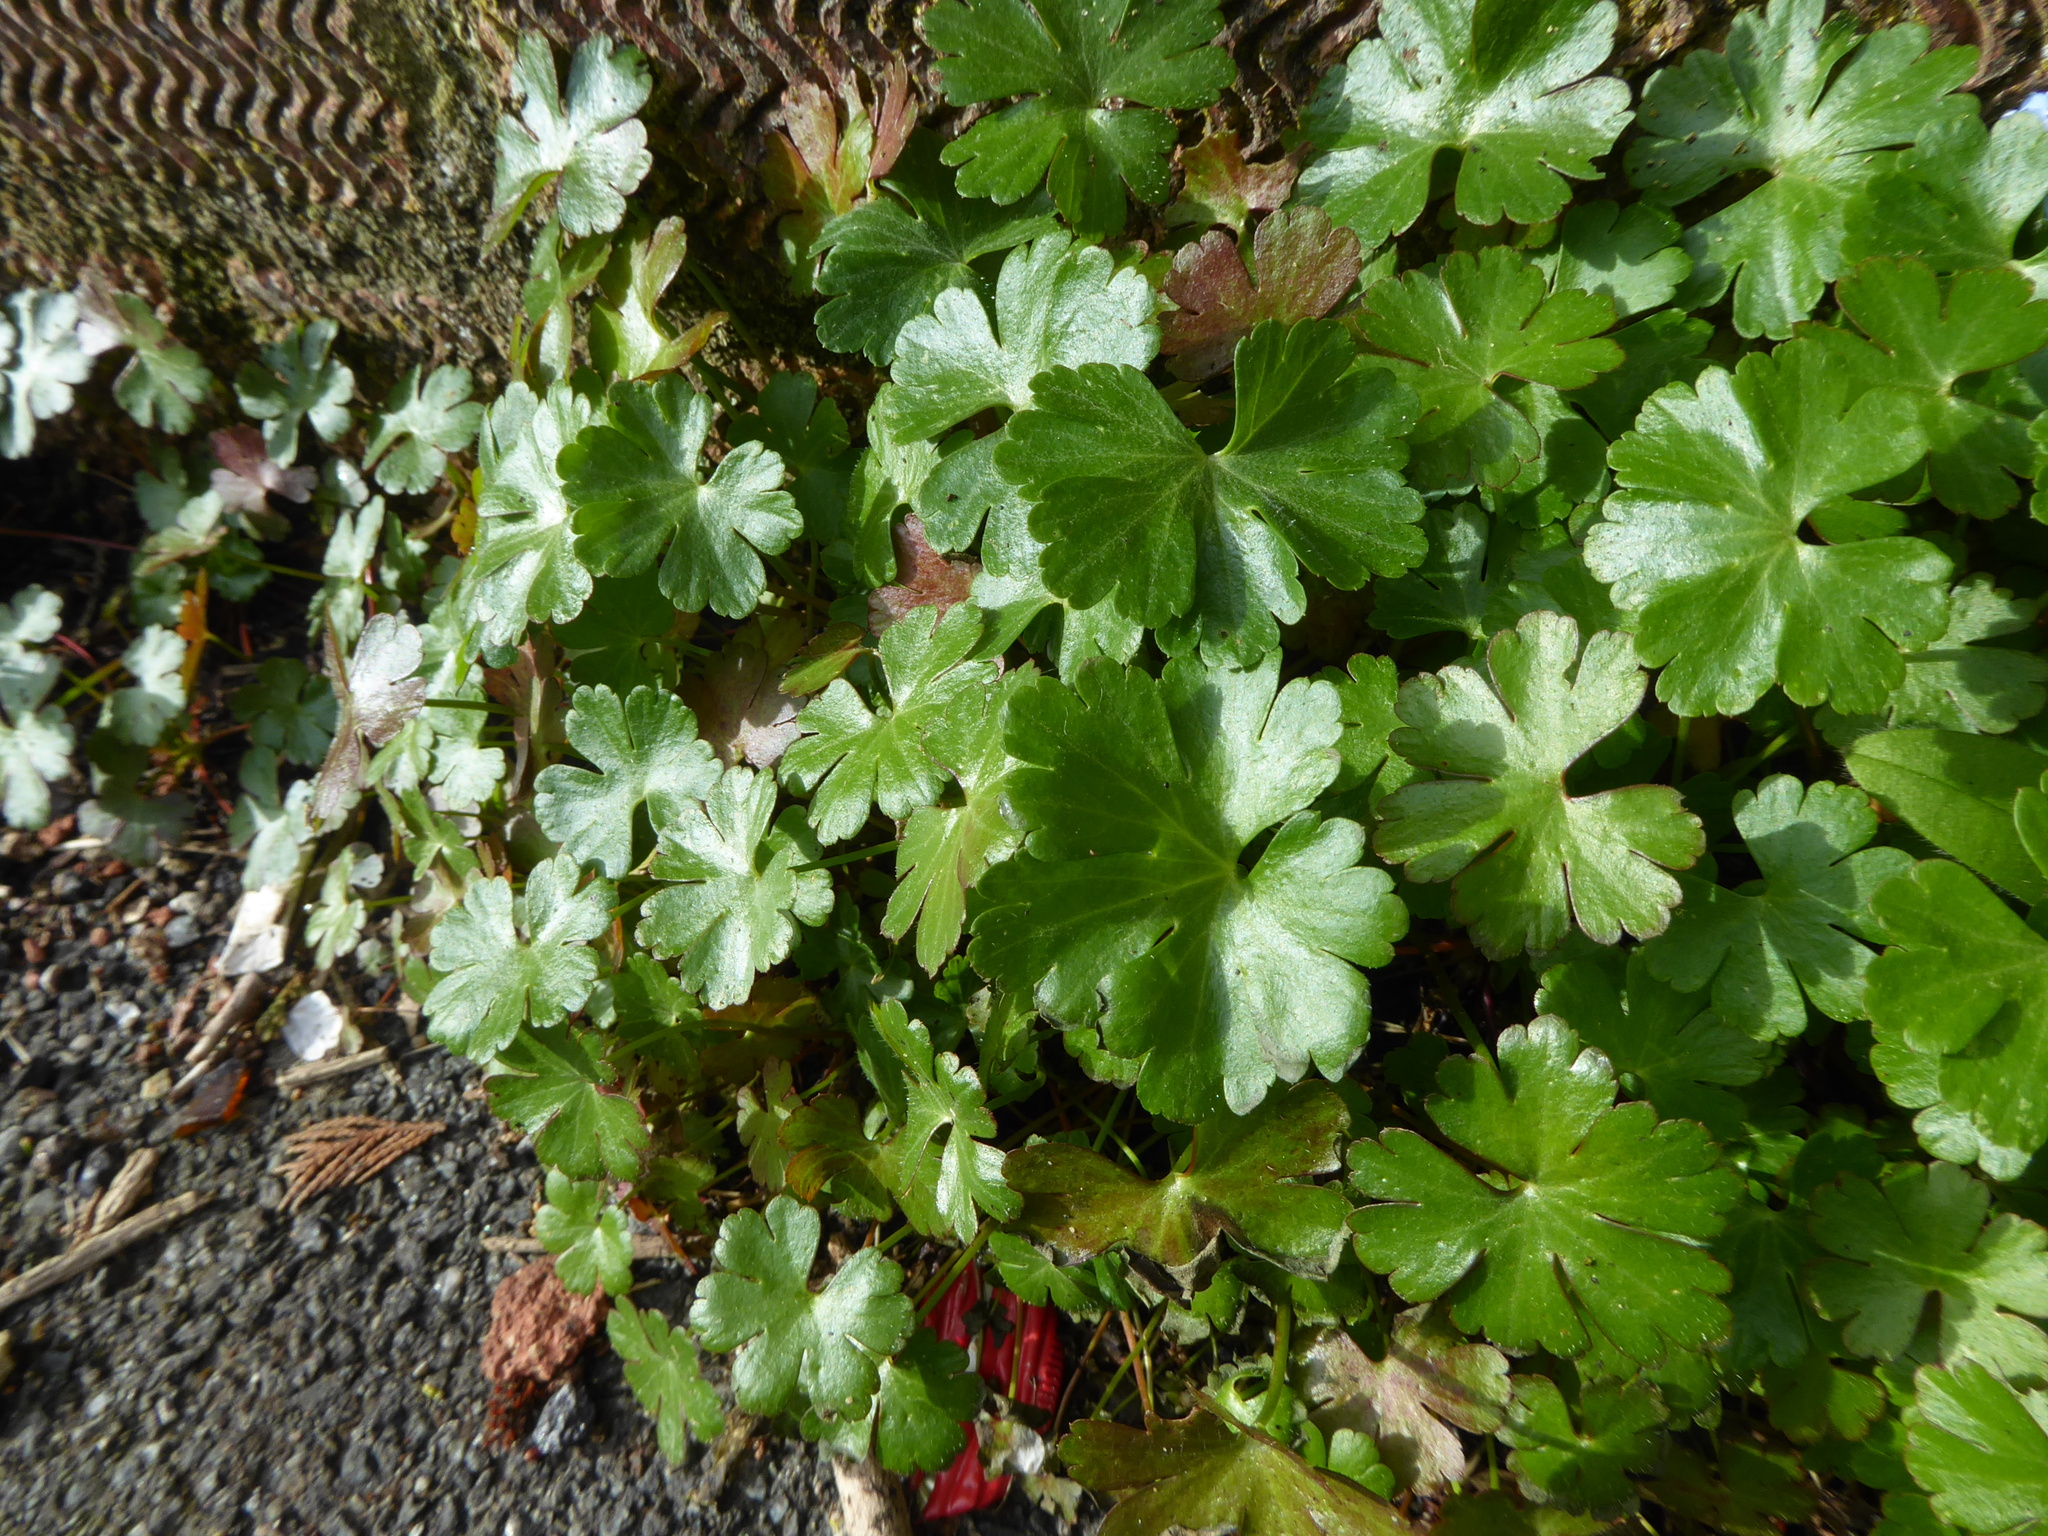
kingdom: Plantae
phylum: Tracheophyta
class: Magnoliopsida
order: Geraniales
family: Geraniaceae
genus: Geranium
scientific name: Geranium lucidum
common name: Shining crane's-bill
